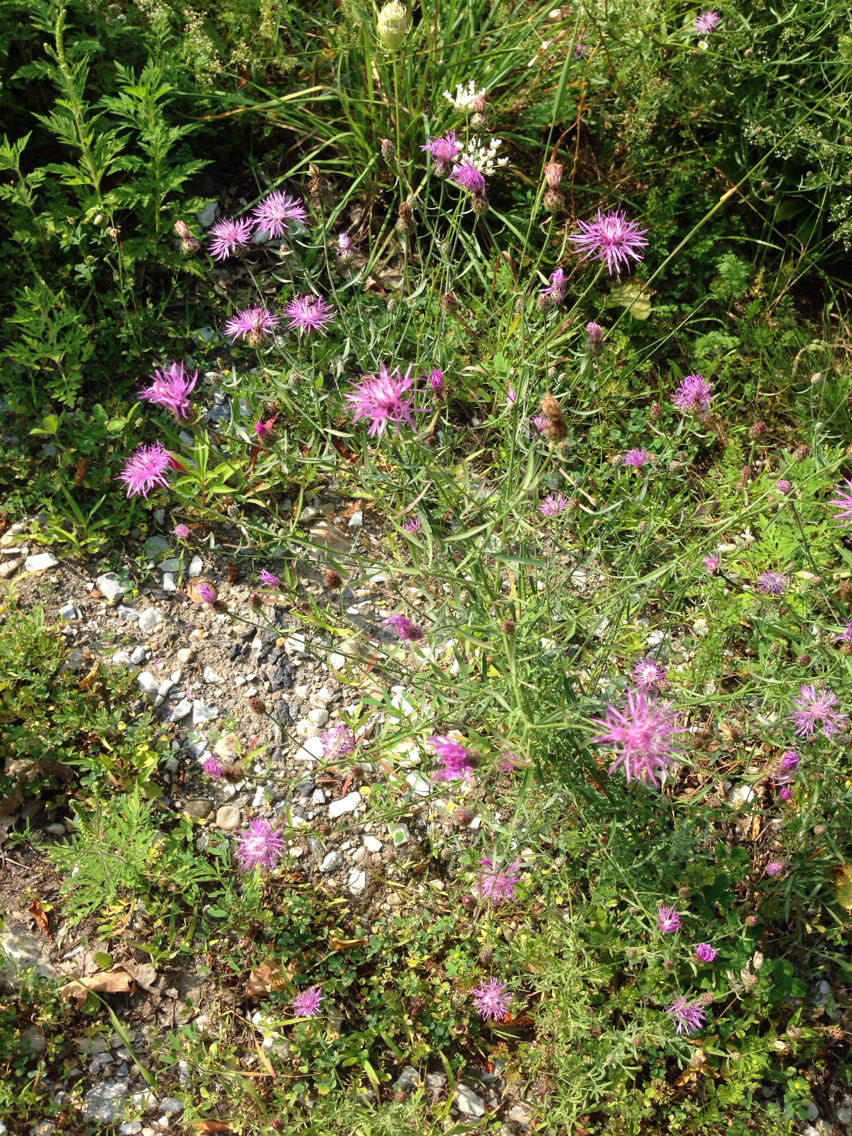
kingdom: Plantae
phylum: Tracheophyta
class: Magnoliopsida
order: Asterales
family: Asteraceae
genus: Centaurea
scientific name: Centaurea stoebe
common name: Spotted knapweed
